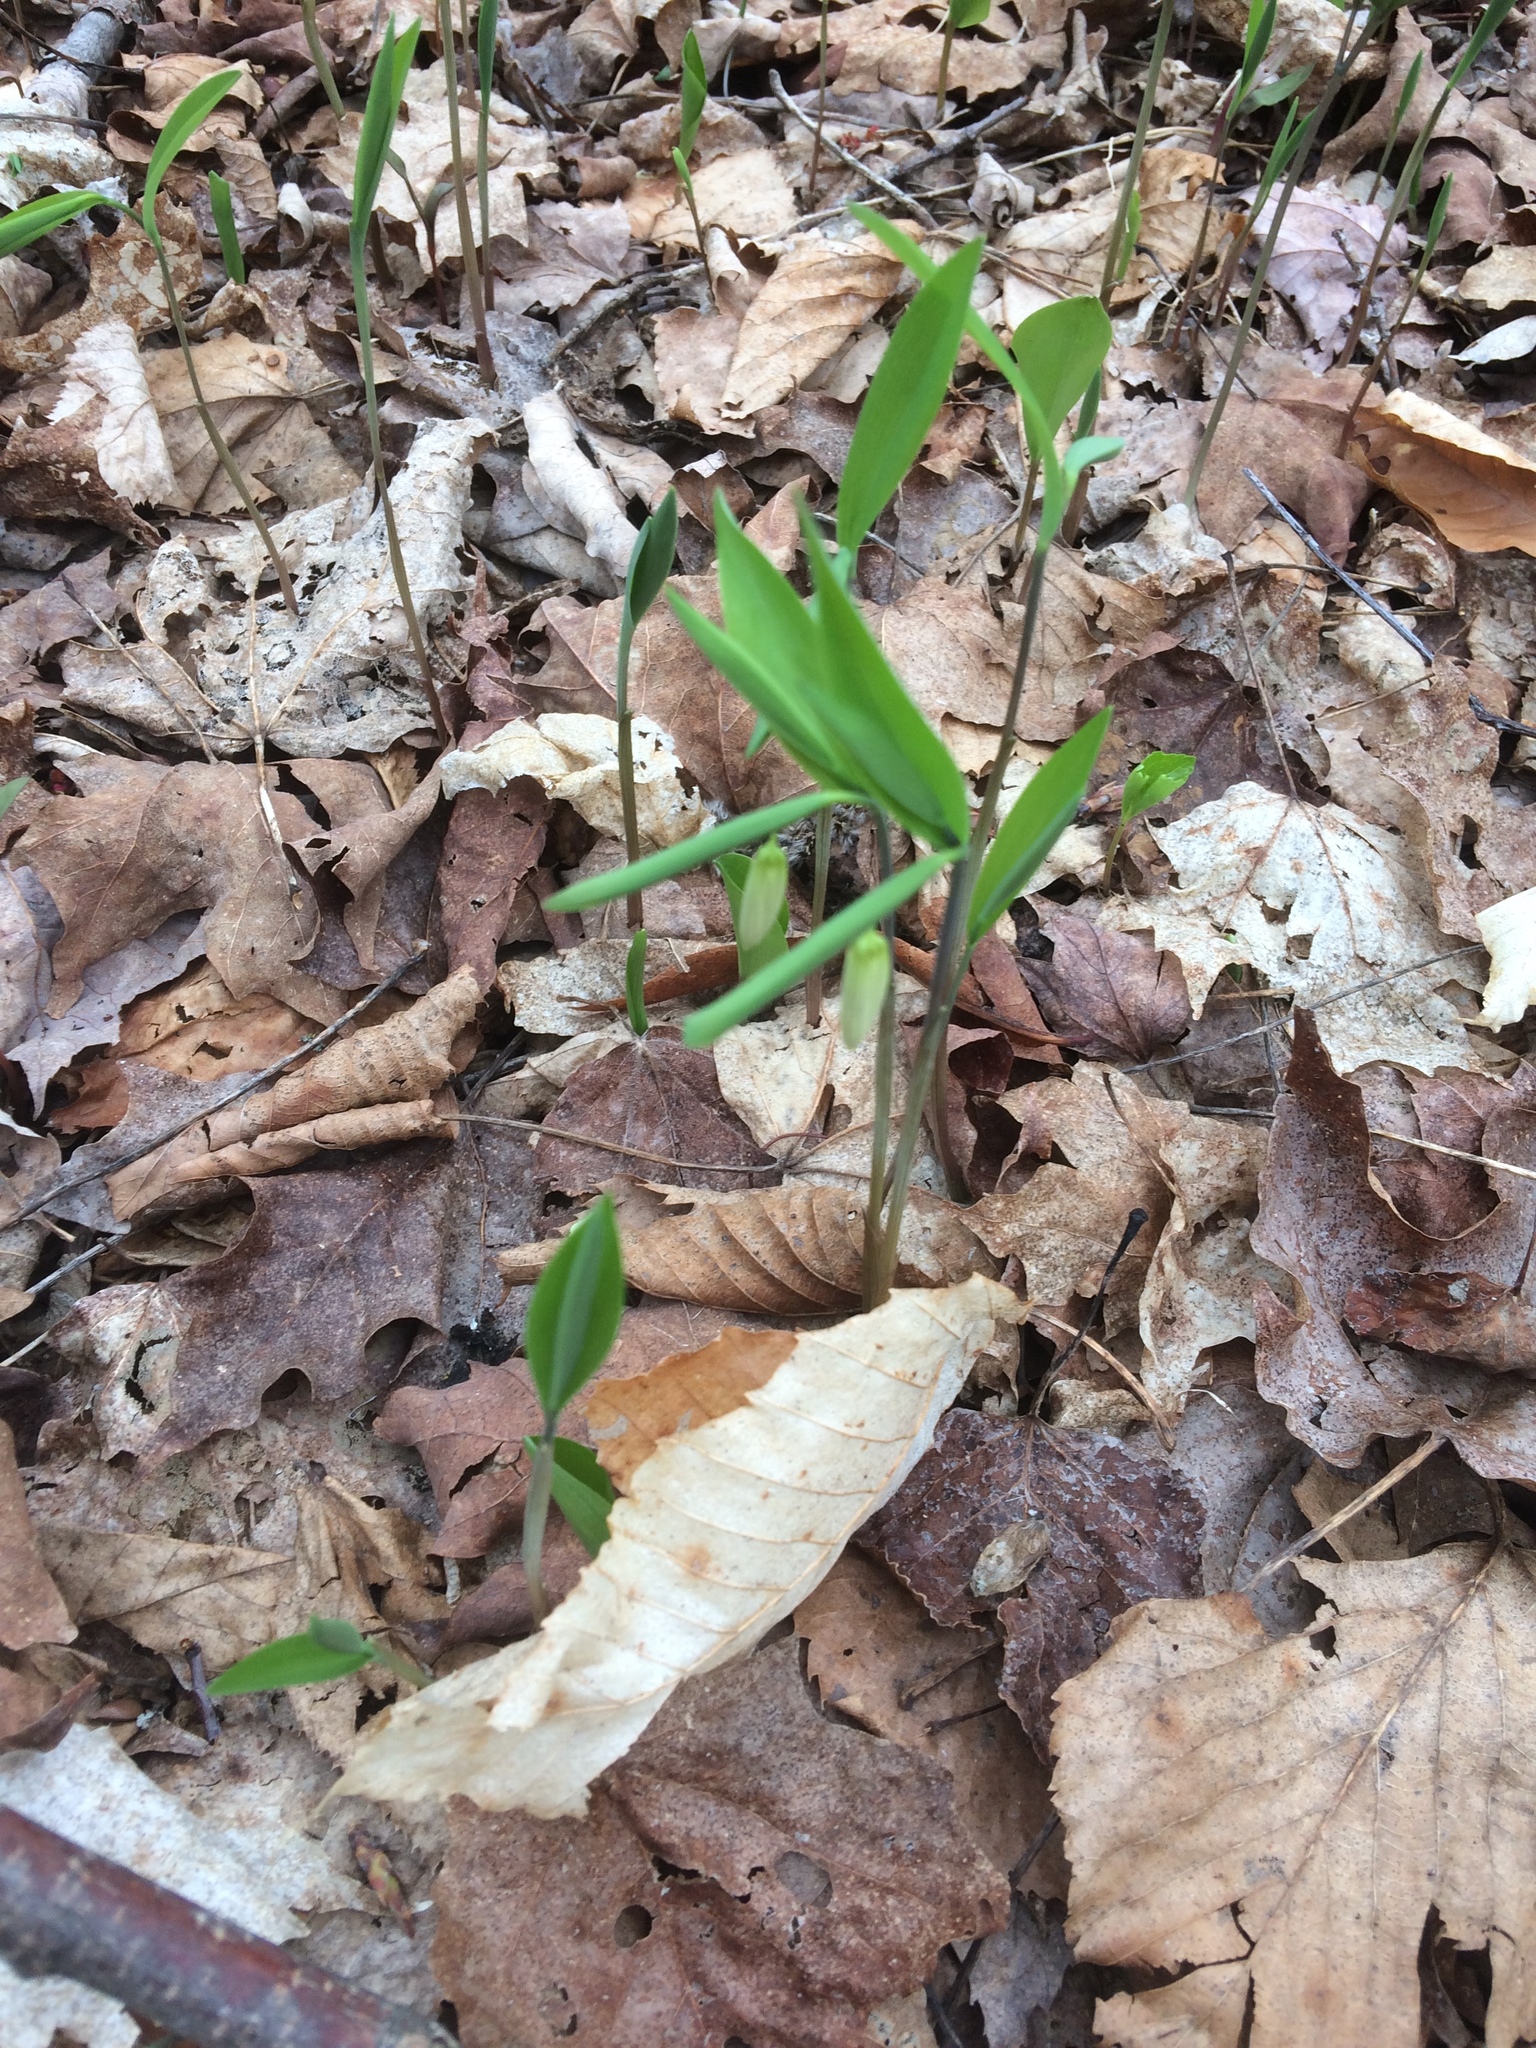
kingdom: Plantae
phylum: Tracheophyta
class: Liliopsida
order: Liliales
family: Colchicaceae
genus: Uvularia
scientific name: Uvularia sessilifolia
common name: Straw-lily
